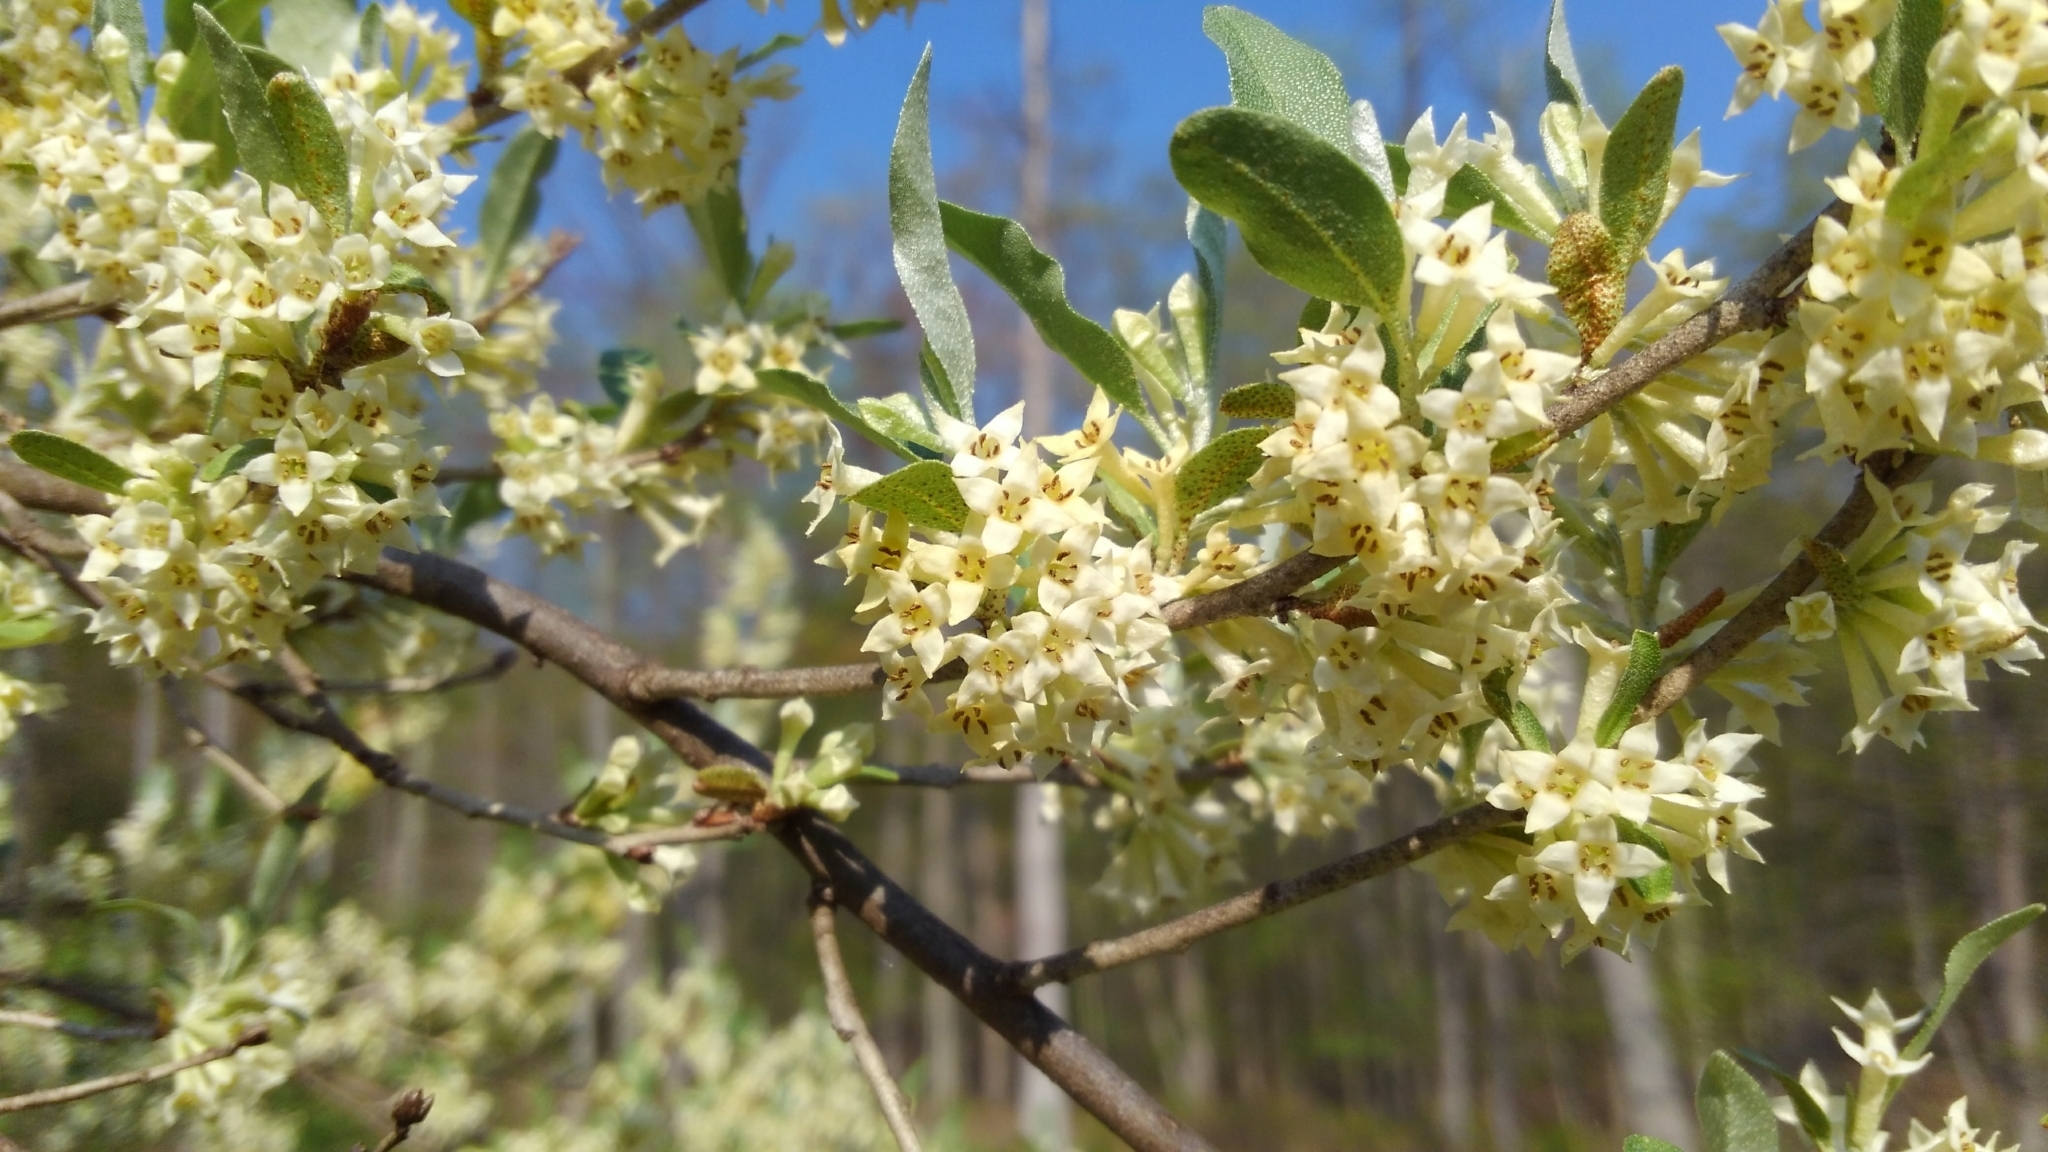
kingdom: Plantae
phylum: Tracheophyta
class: Magnoliopsida
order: Rosales
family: Elaeagnaceae
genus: Elaeagnus
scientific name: Elaeagnus umbellata
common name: Autumn olive
